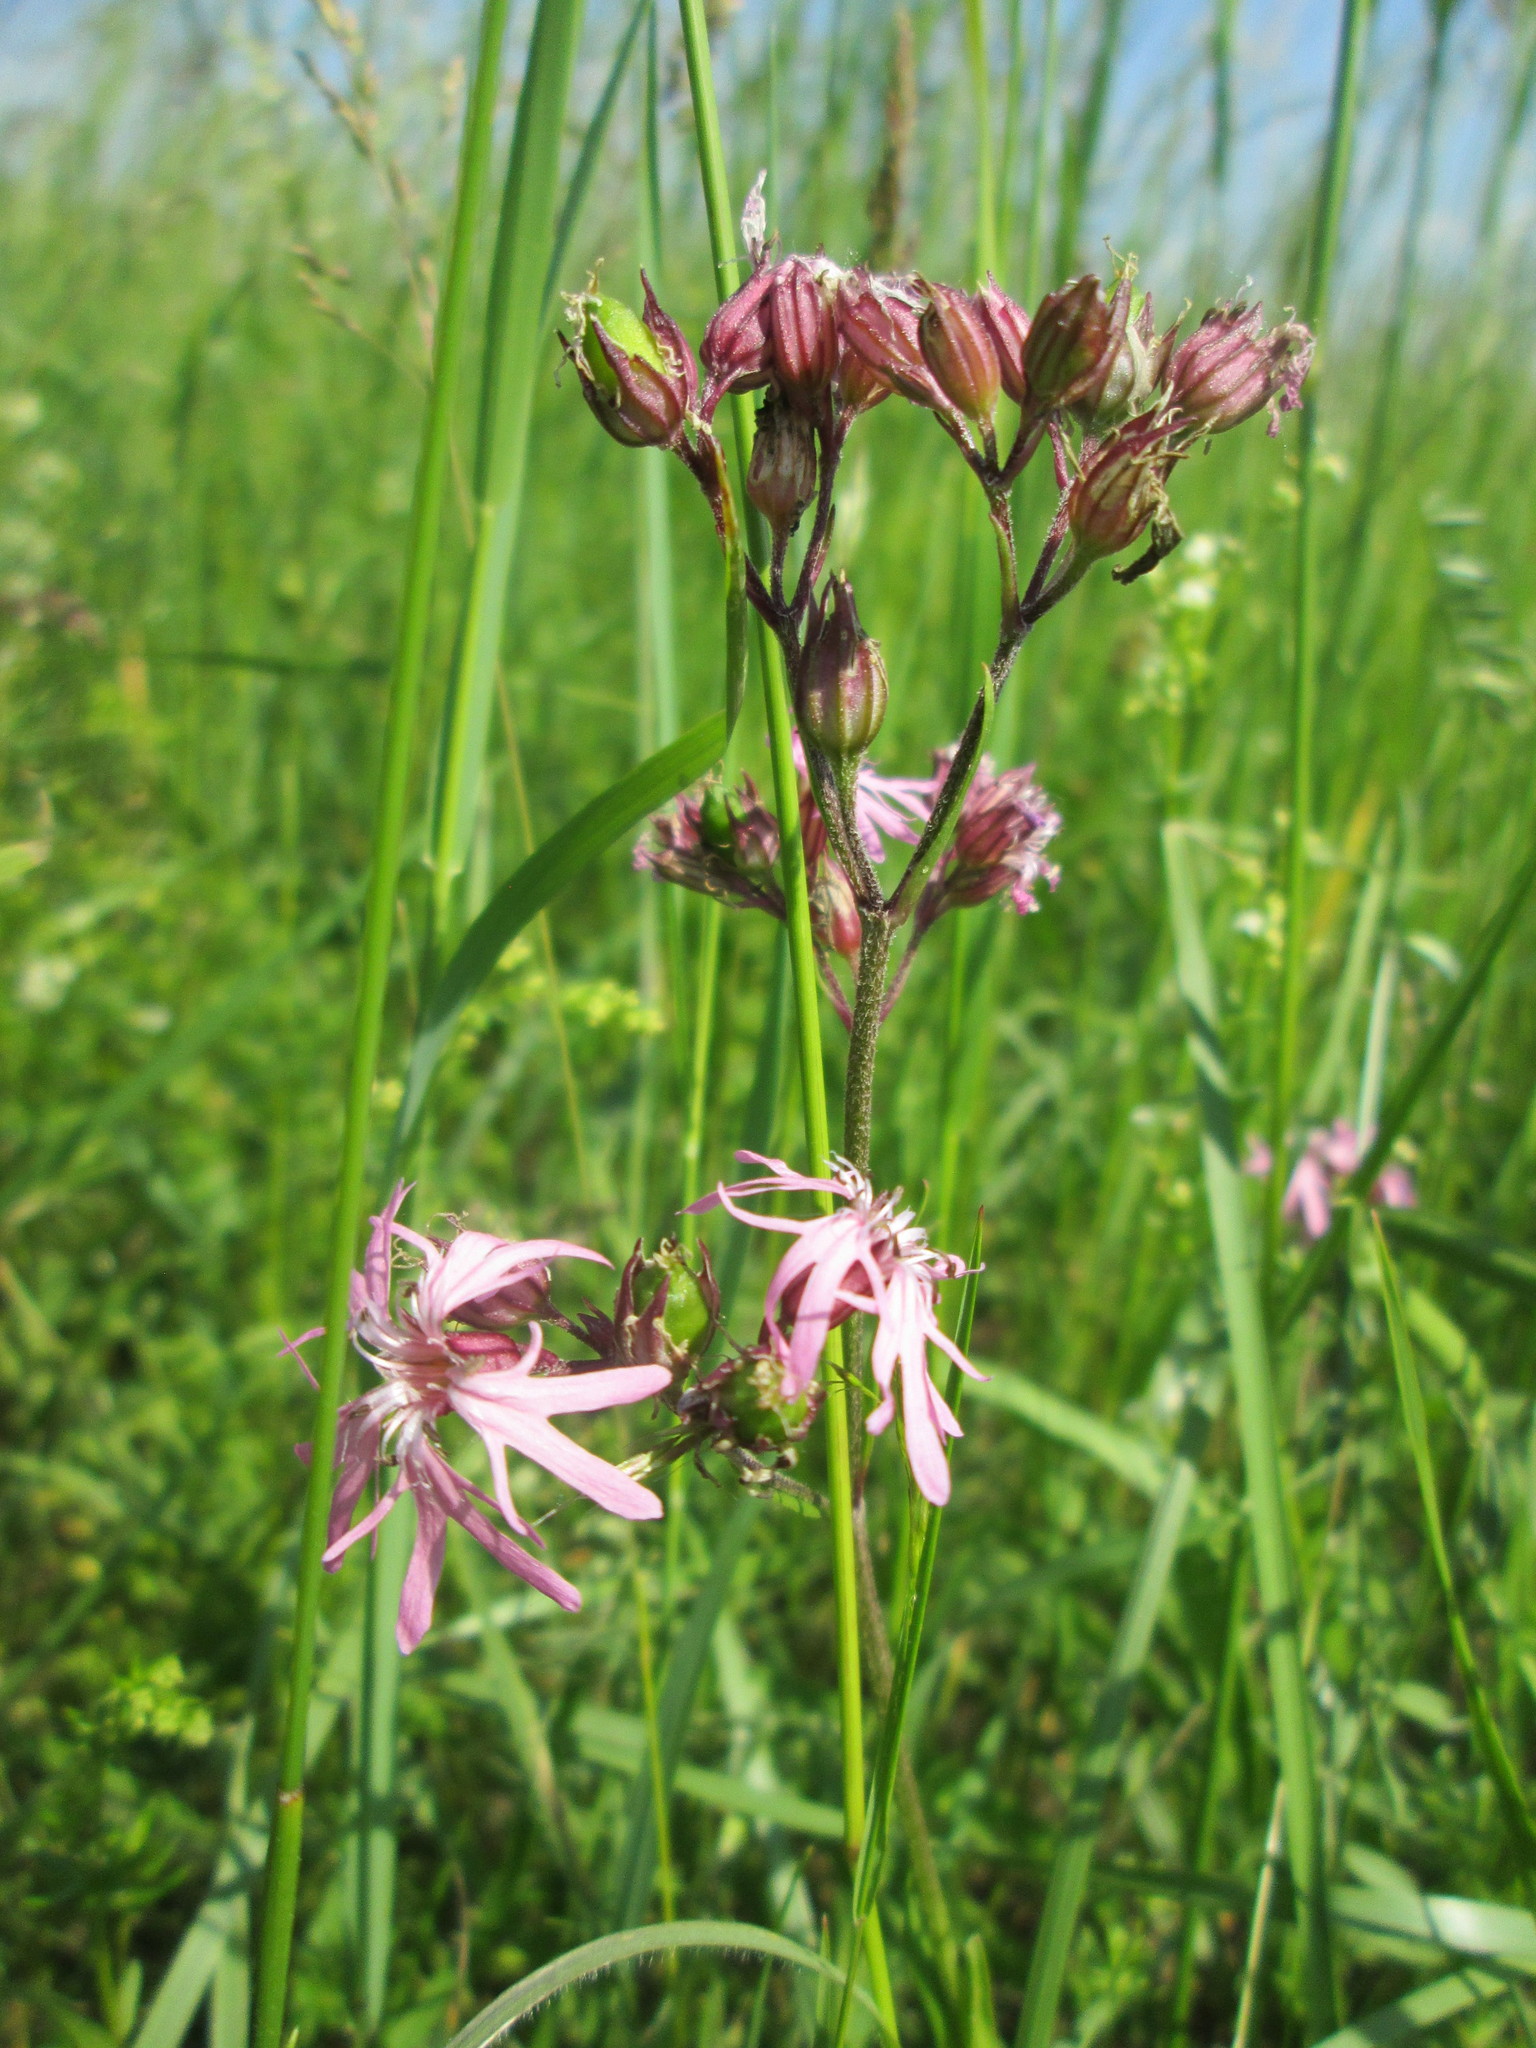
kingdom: Plantae
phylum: Tracheophyta
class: Magnoliopsida
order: Caryophyllales
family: Caryophyllaceae
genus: Silene
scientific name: Silene flos-cuculi
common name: Ragged-robin
